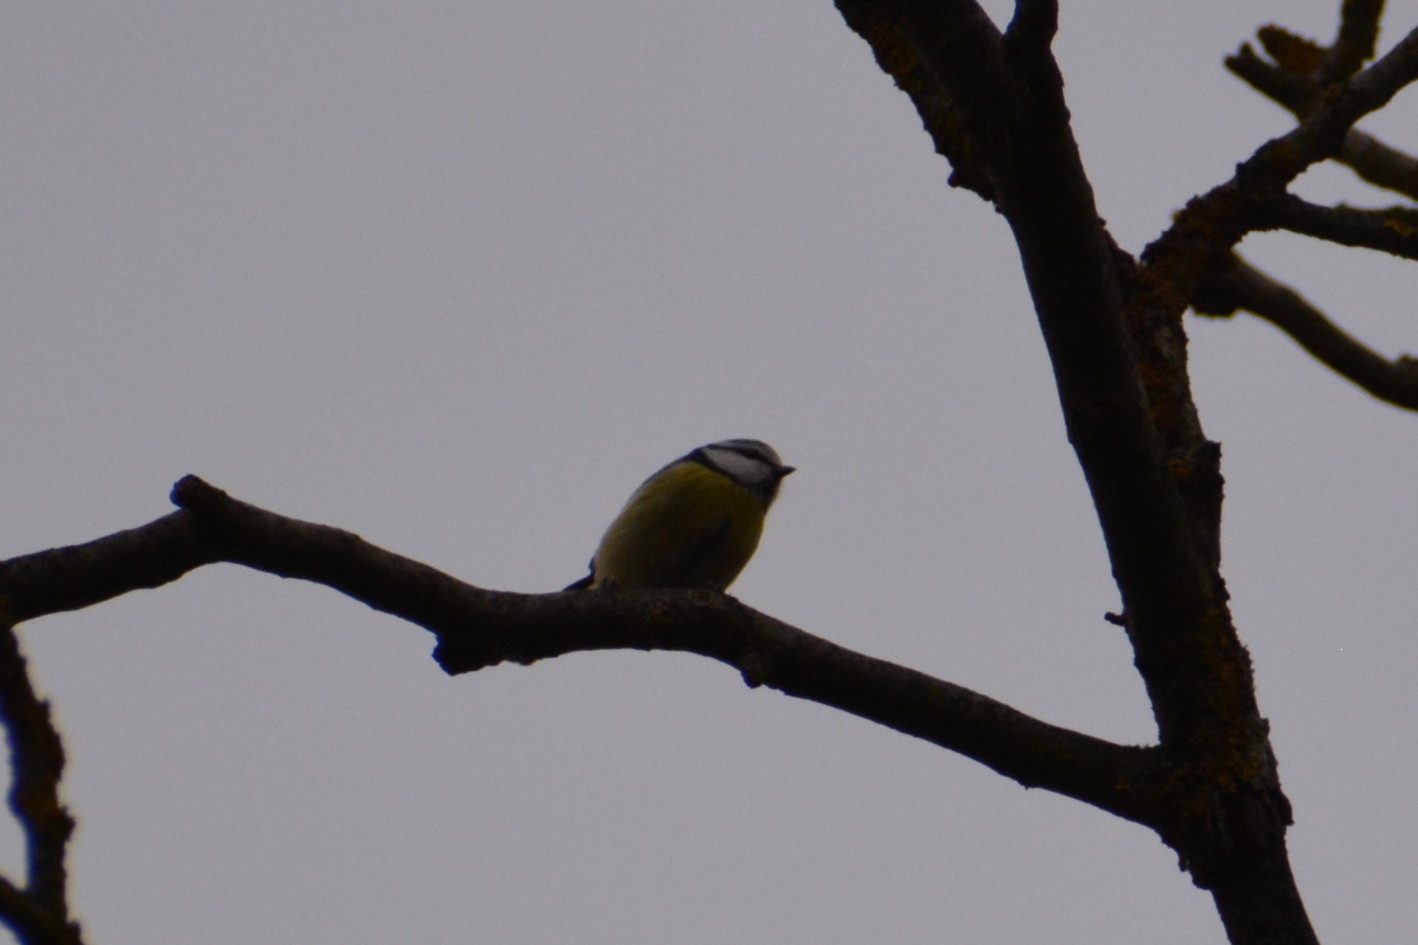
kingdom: Animalia
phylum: Chordata
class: Aves
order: Passeriformes
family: Paridae
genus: Cyanistes
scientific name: Cyanistes caeruleus
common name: Eurasian blue tit
